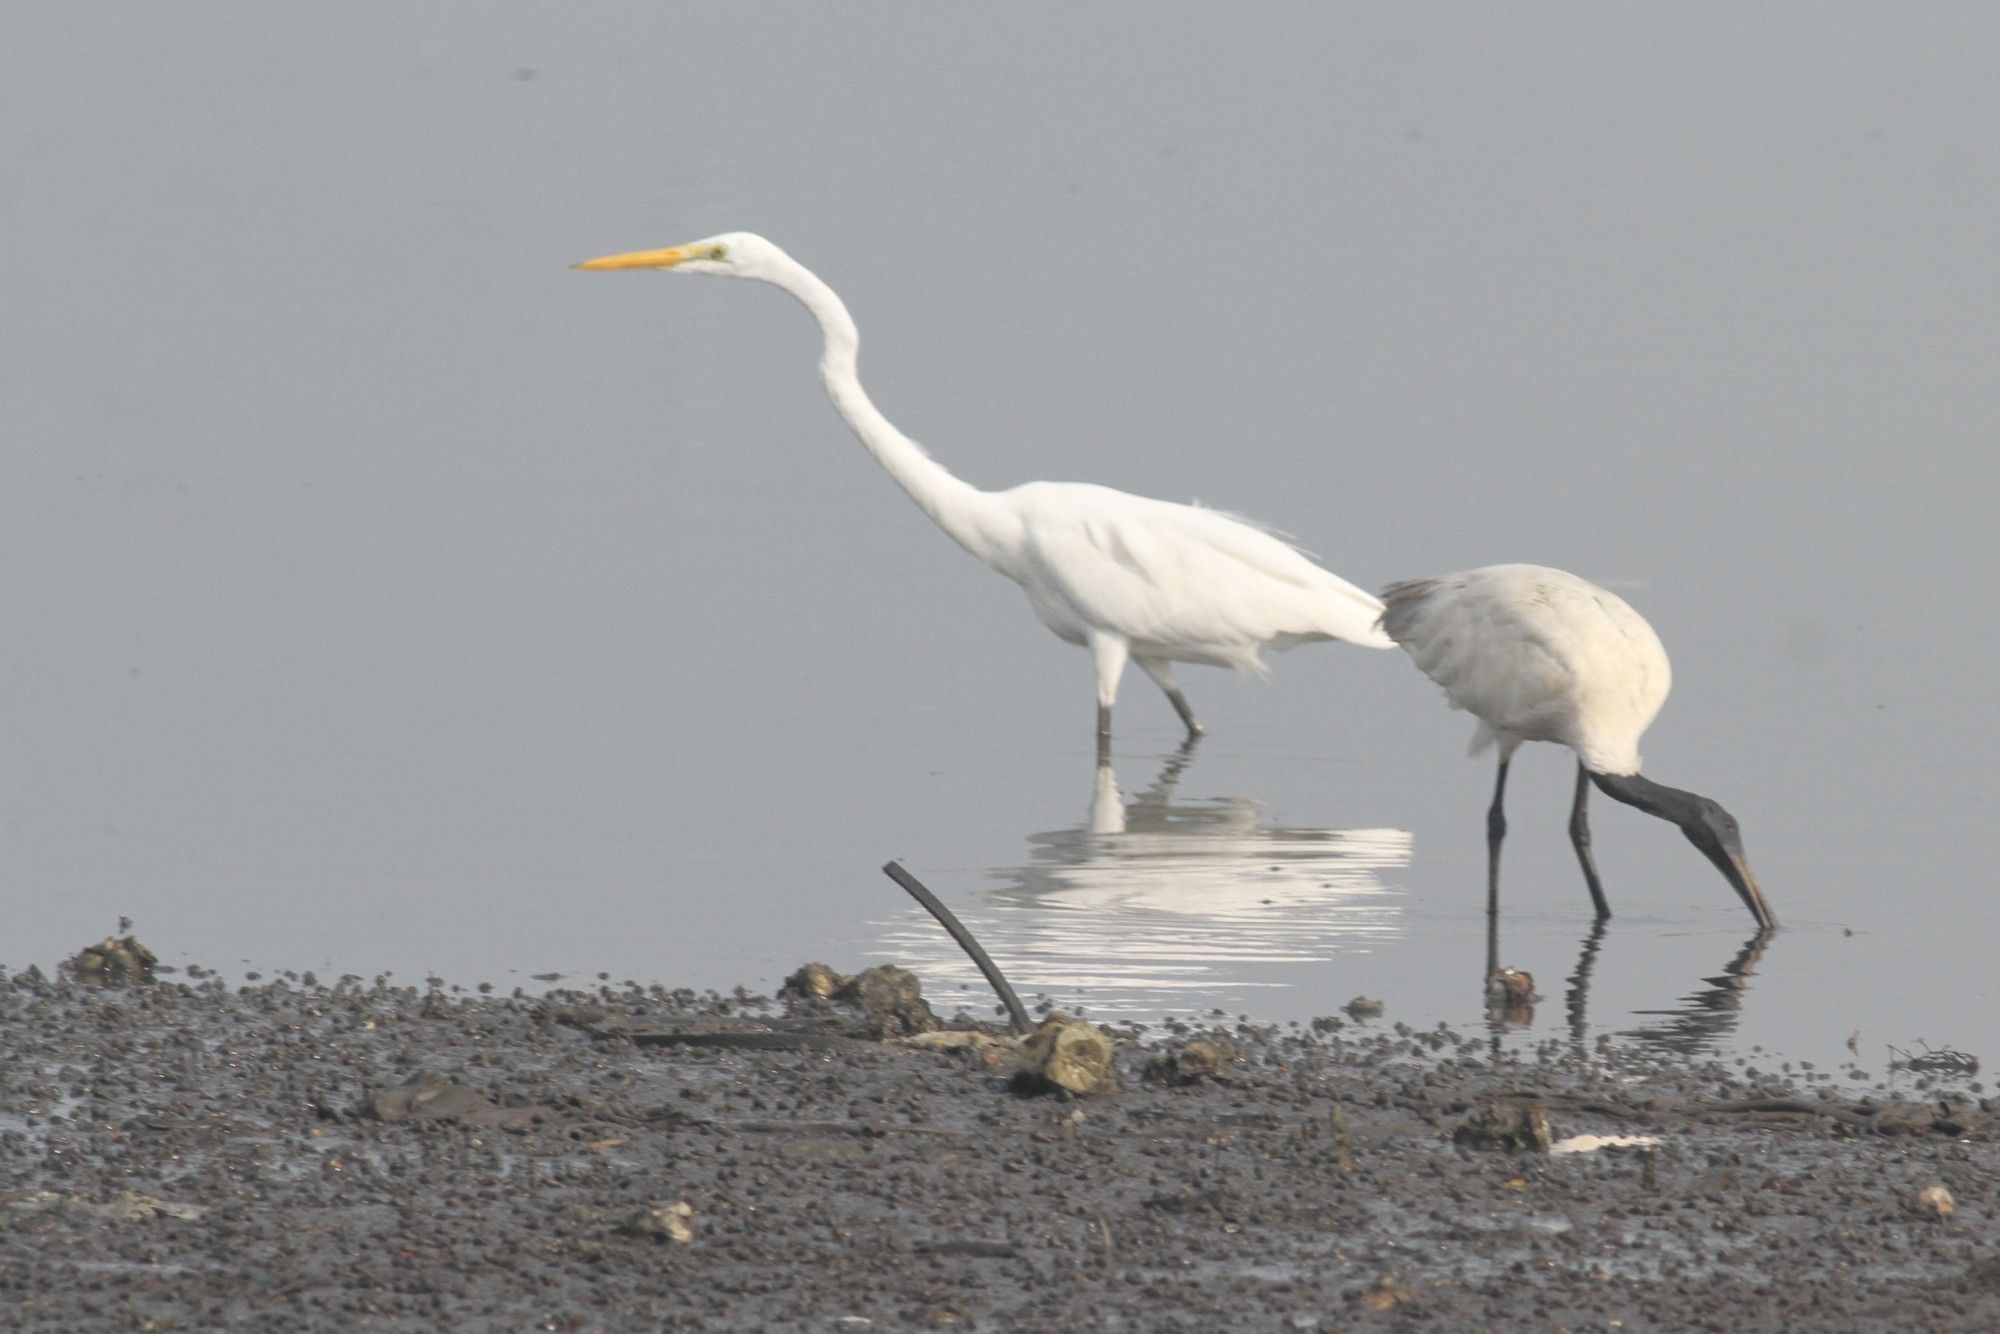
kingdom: Animalia
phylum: Chordata
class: Aves
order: Pelecaniformes
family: Ardeidae
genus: Ardea
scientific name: Ardea alba
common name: Great egret
